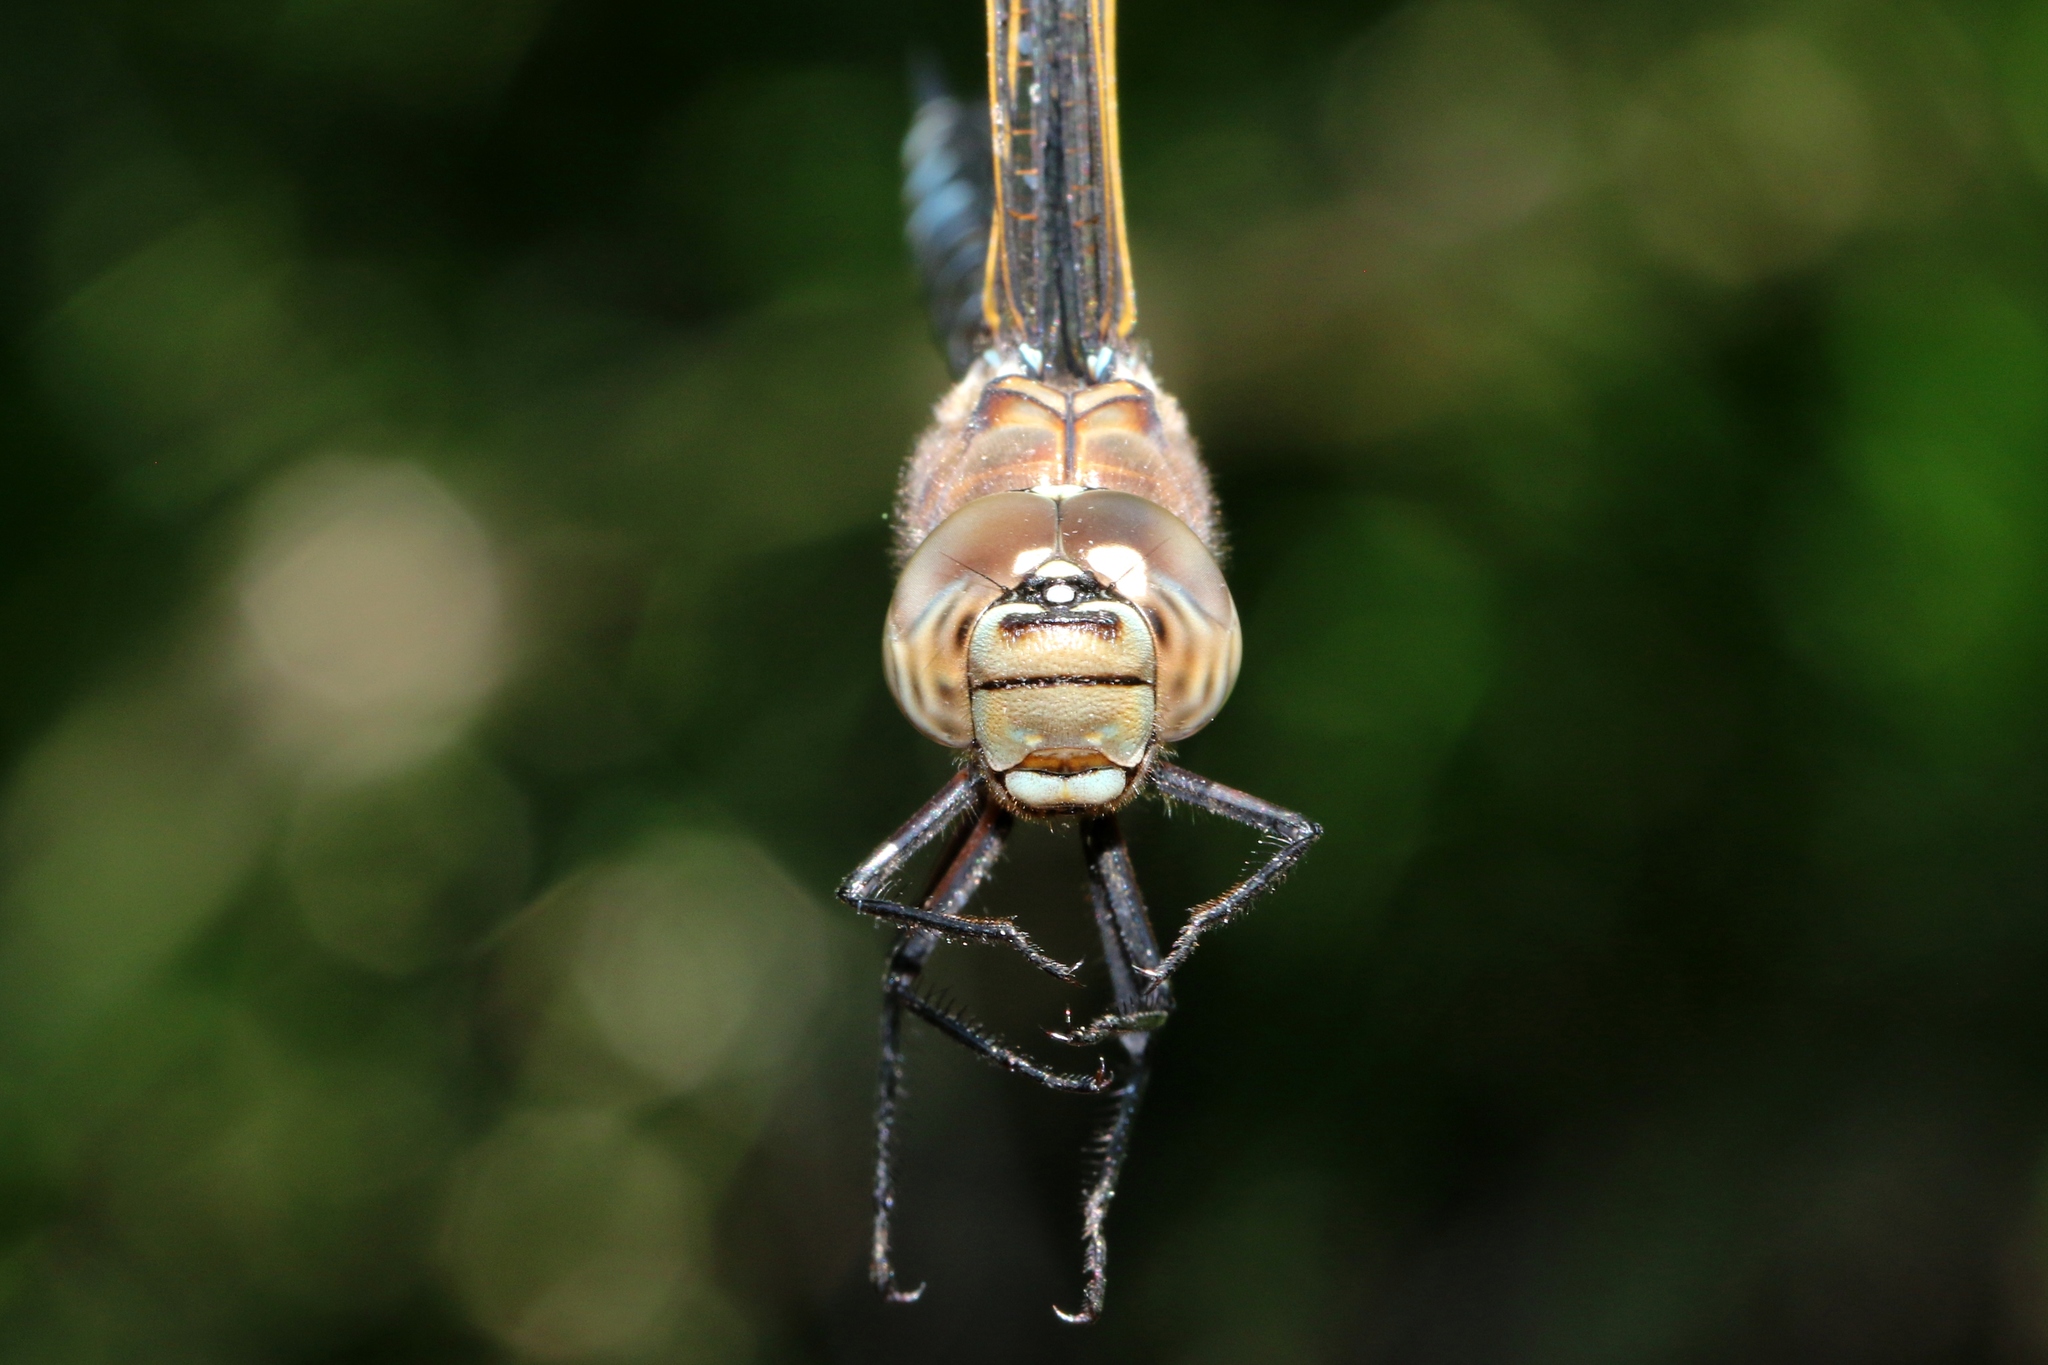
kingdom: Animalia
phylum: Arthropoda
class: Insecta
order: Odonata
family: Aeshnidae
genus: Aeshna
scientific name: Aeshna interrupta
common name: Variable darner
